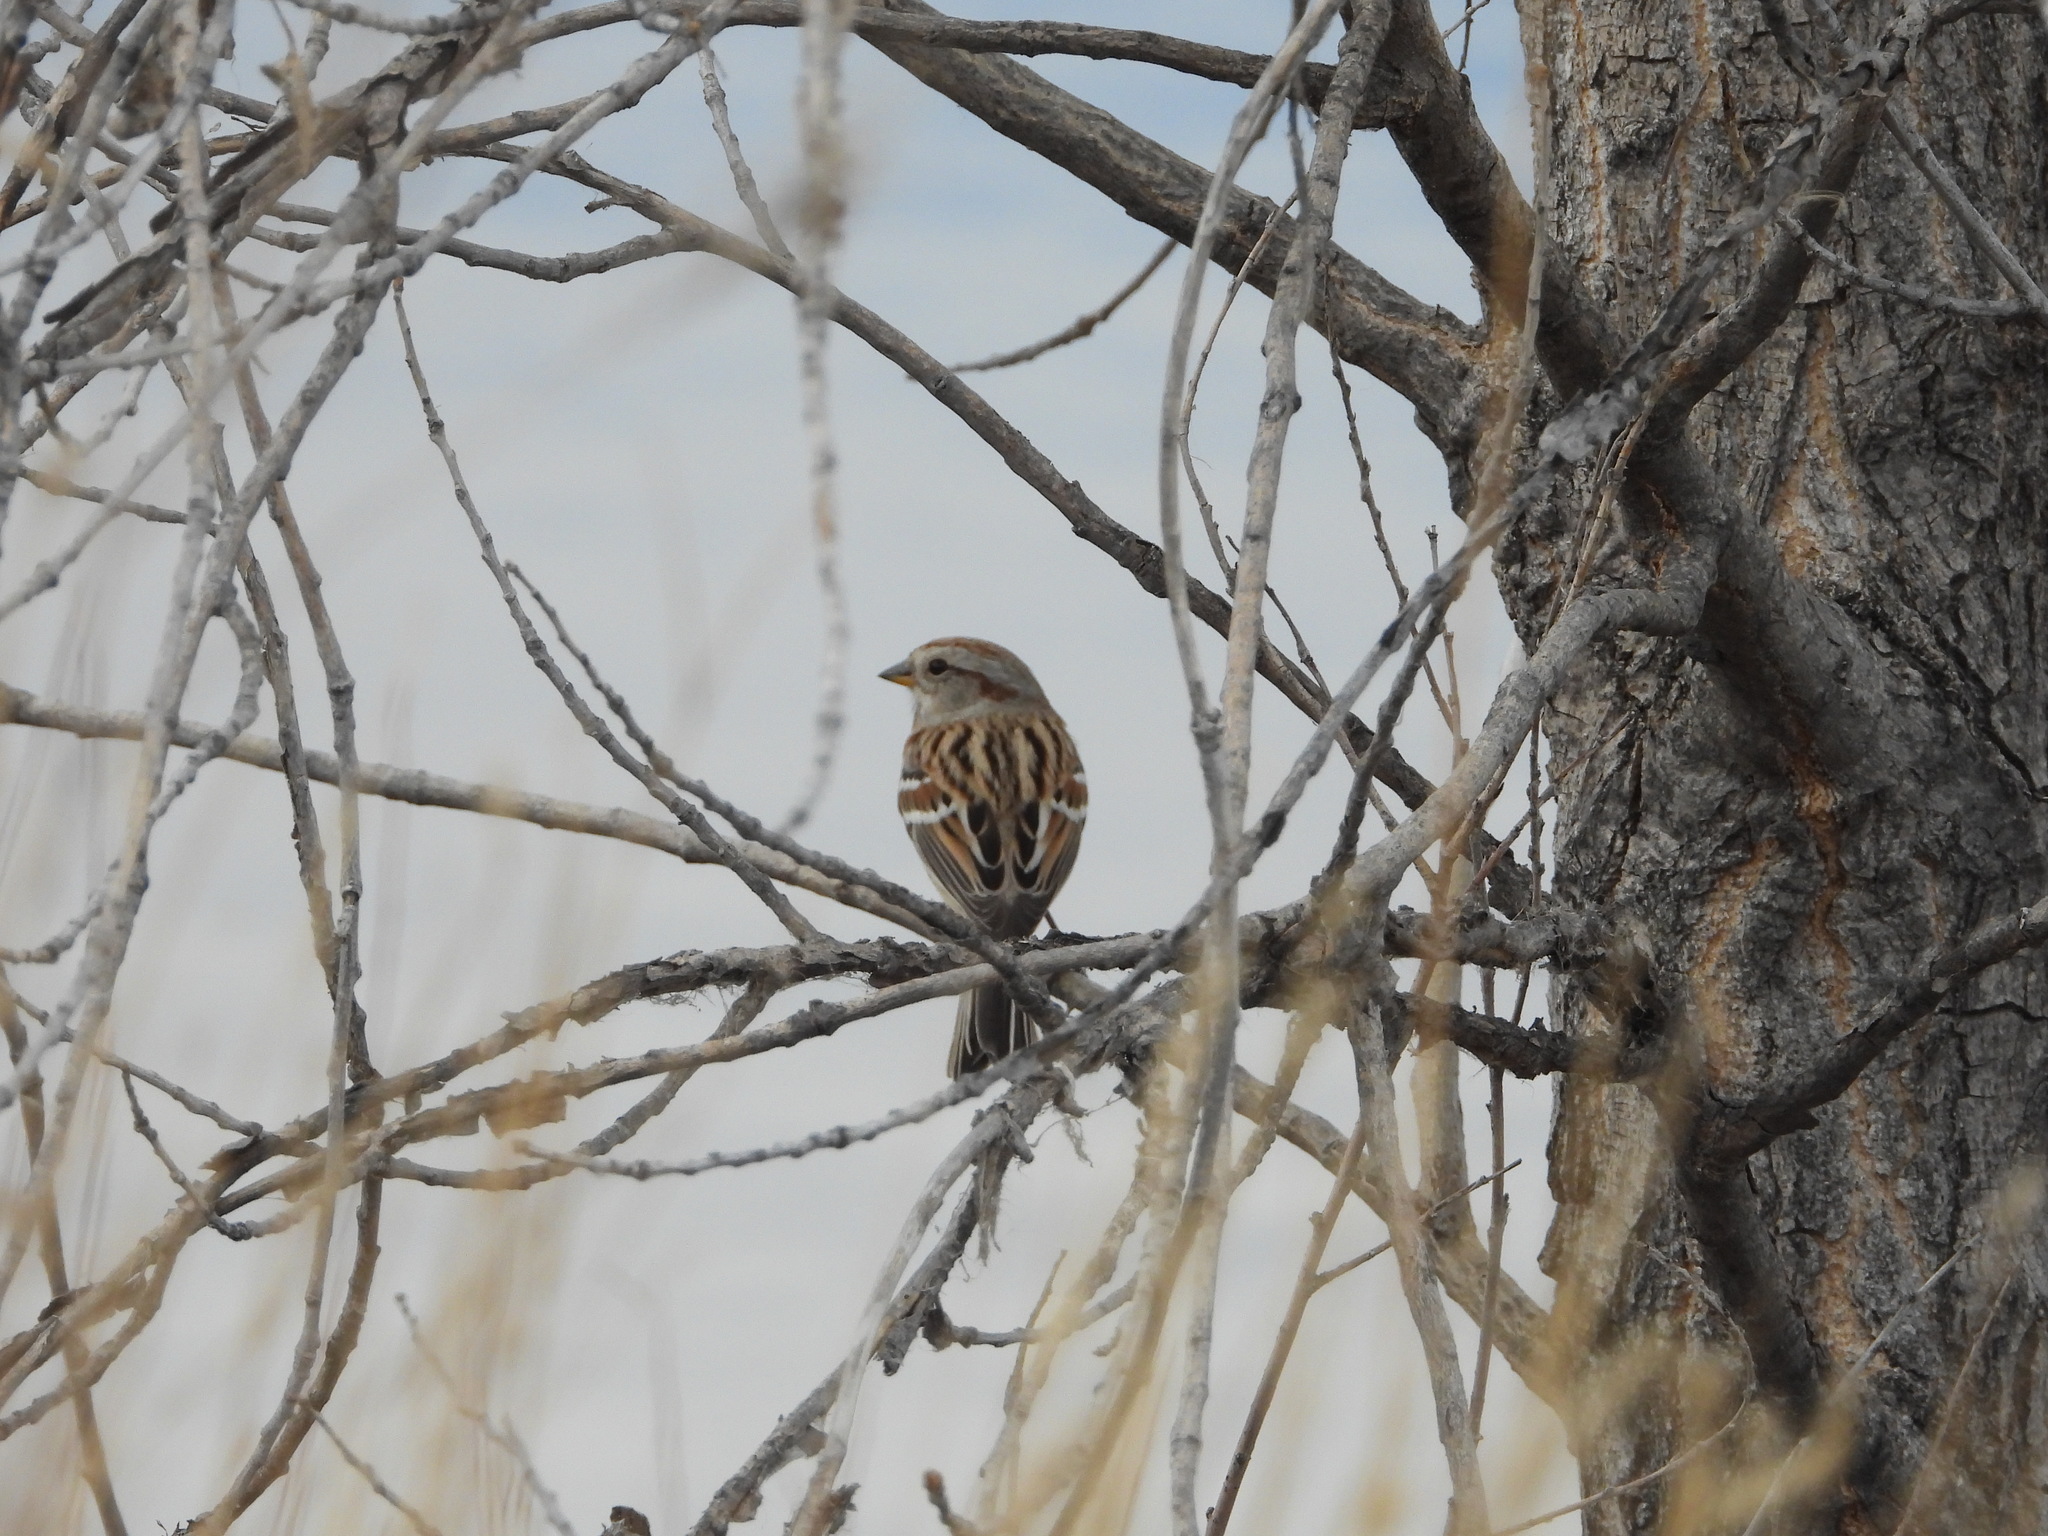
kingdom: Animalia
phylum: Chordata
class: Aves
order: Passeriformes
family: Passerellidae
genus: Spizelloides
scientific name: Spizelloides arborea
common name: American tree sparrow
